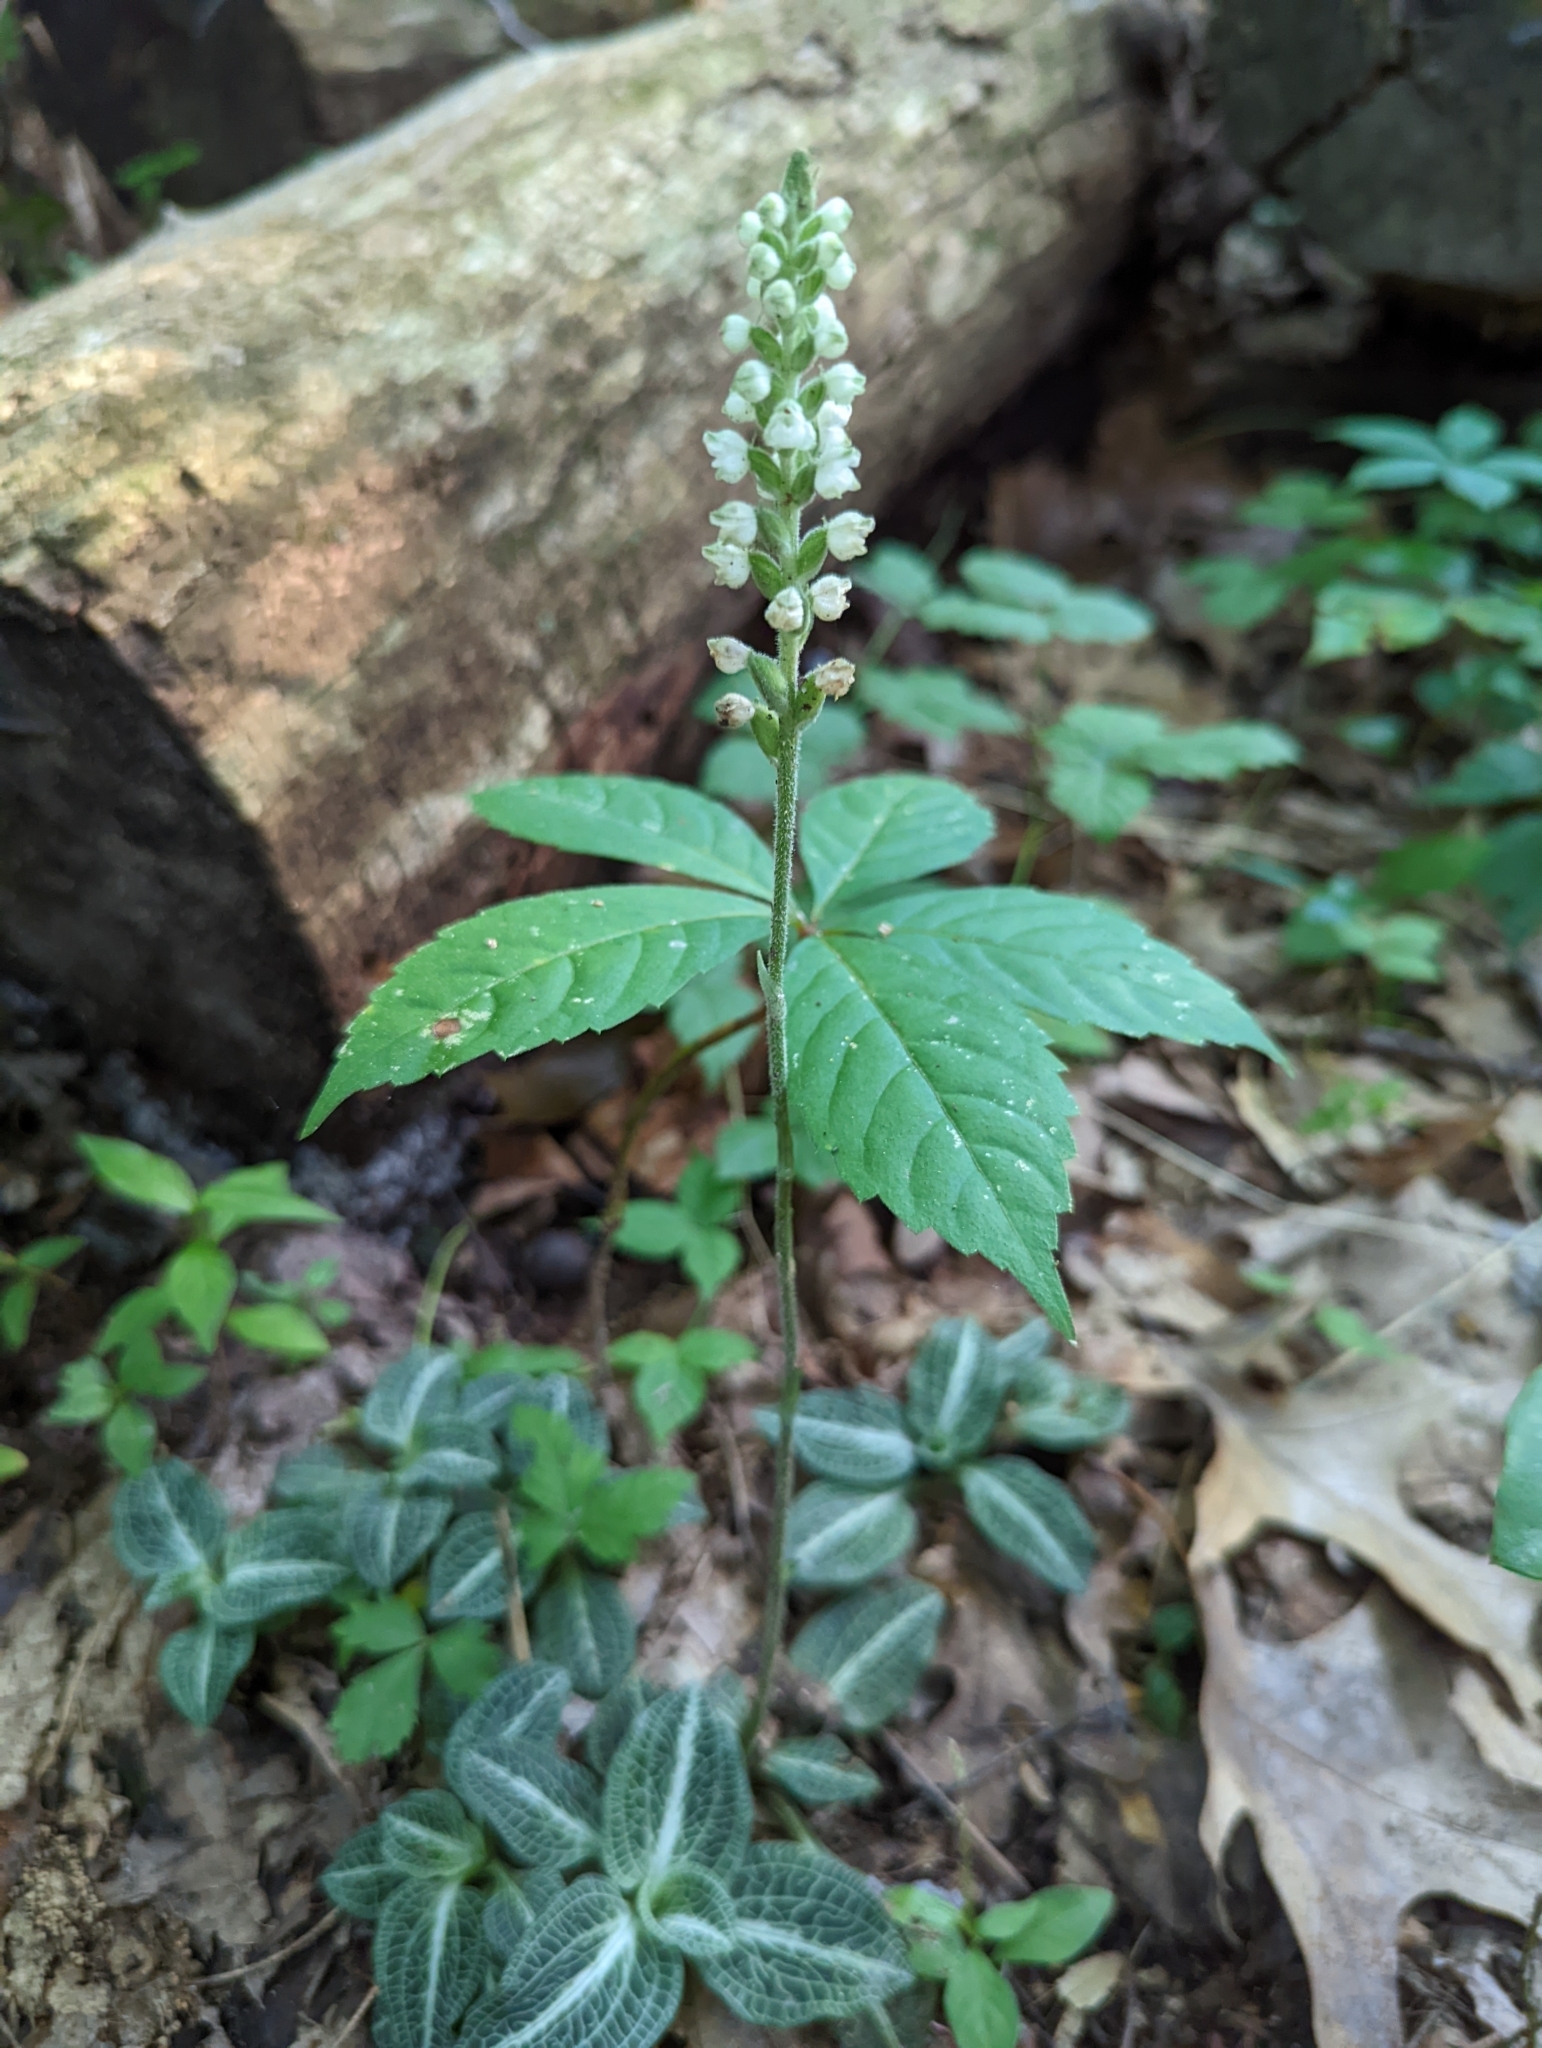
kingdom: Plantae
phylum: Tracheophyta
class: Liliopsida
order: Asparagales
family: Orchidaceae
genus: Goodyera
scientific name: Goodyera pubescens
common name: Downy rattlesnake-plantain
